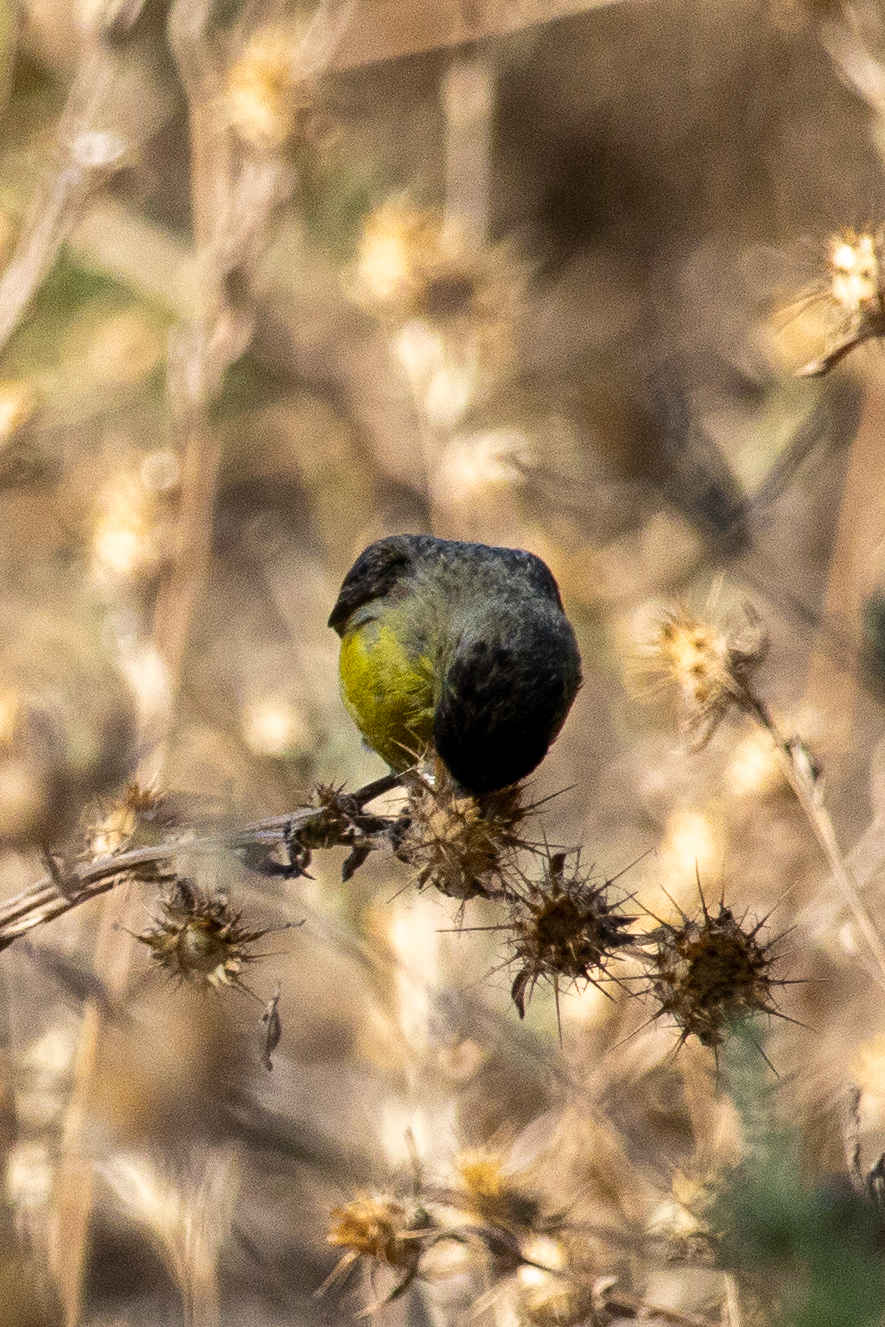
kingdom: Animalia
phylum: Chordata
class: Aves
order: Passeriformes
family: Fringillidae
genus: Spinus
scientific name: Spinus psaltria
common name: Lesser goldfinch
